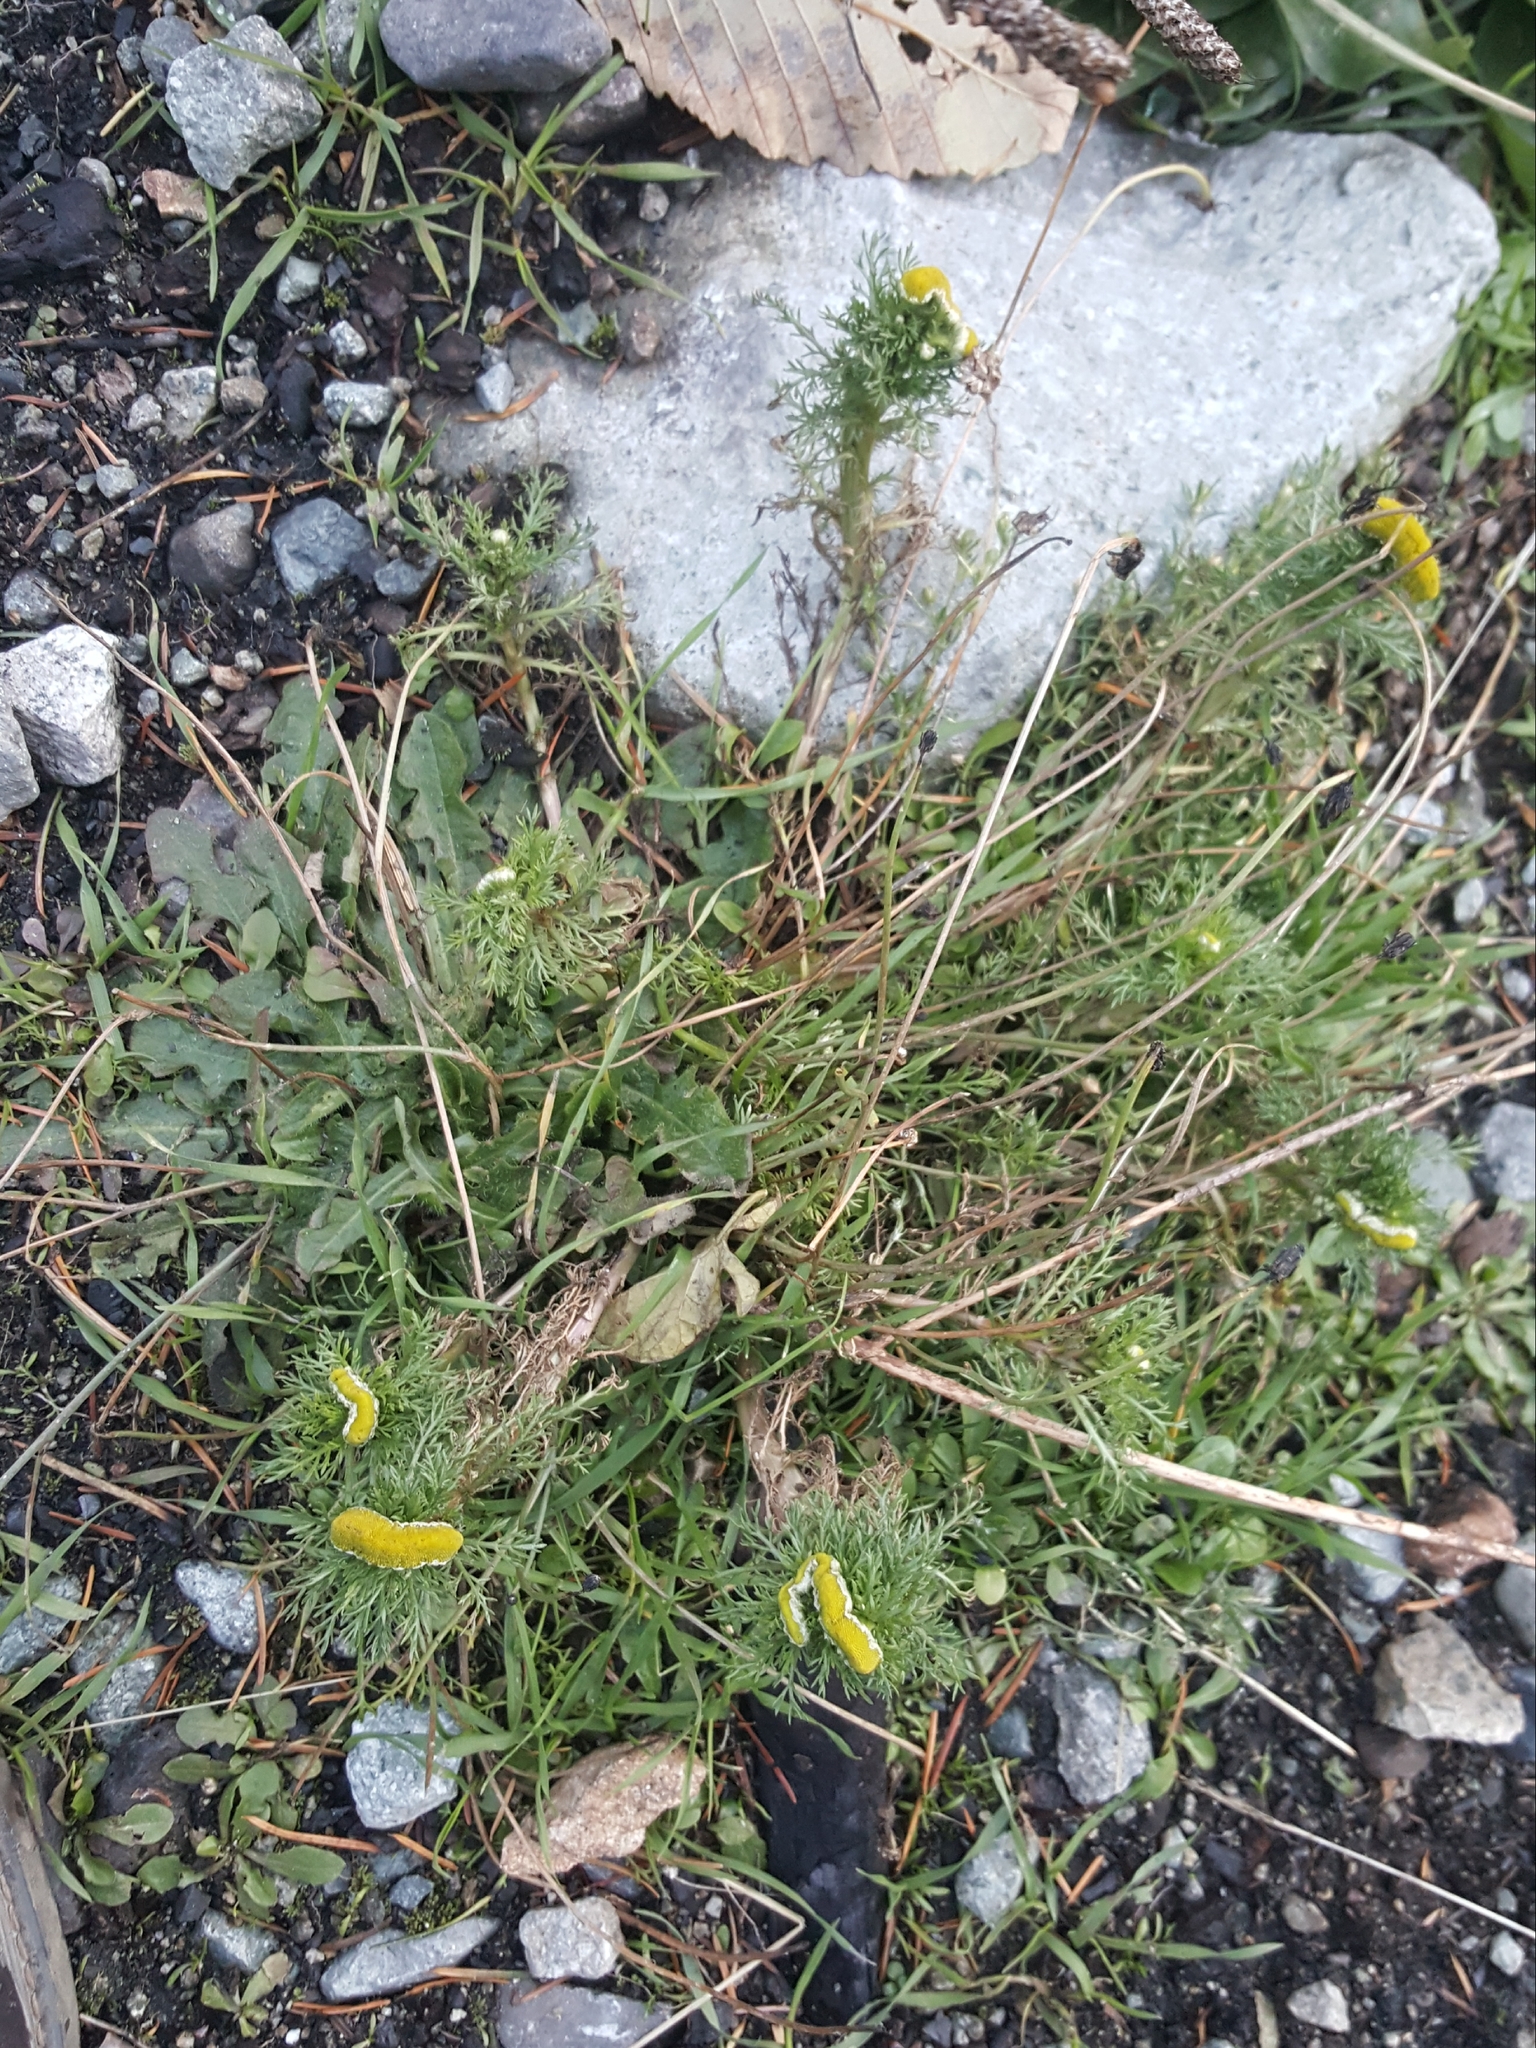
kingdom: Plantae
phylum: Tracheophyta
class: Magnoliopsida
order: Asterales
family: Asteraceae
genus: Matricaria
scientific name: Matricaria discoidea
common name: Disc mayweed
